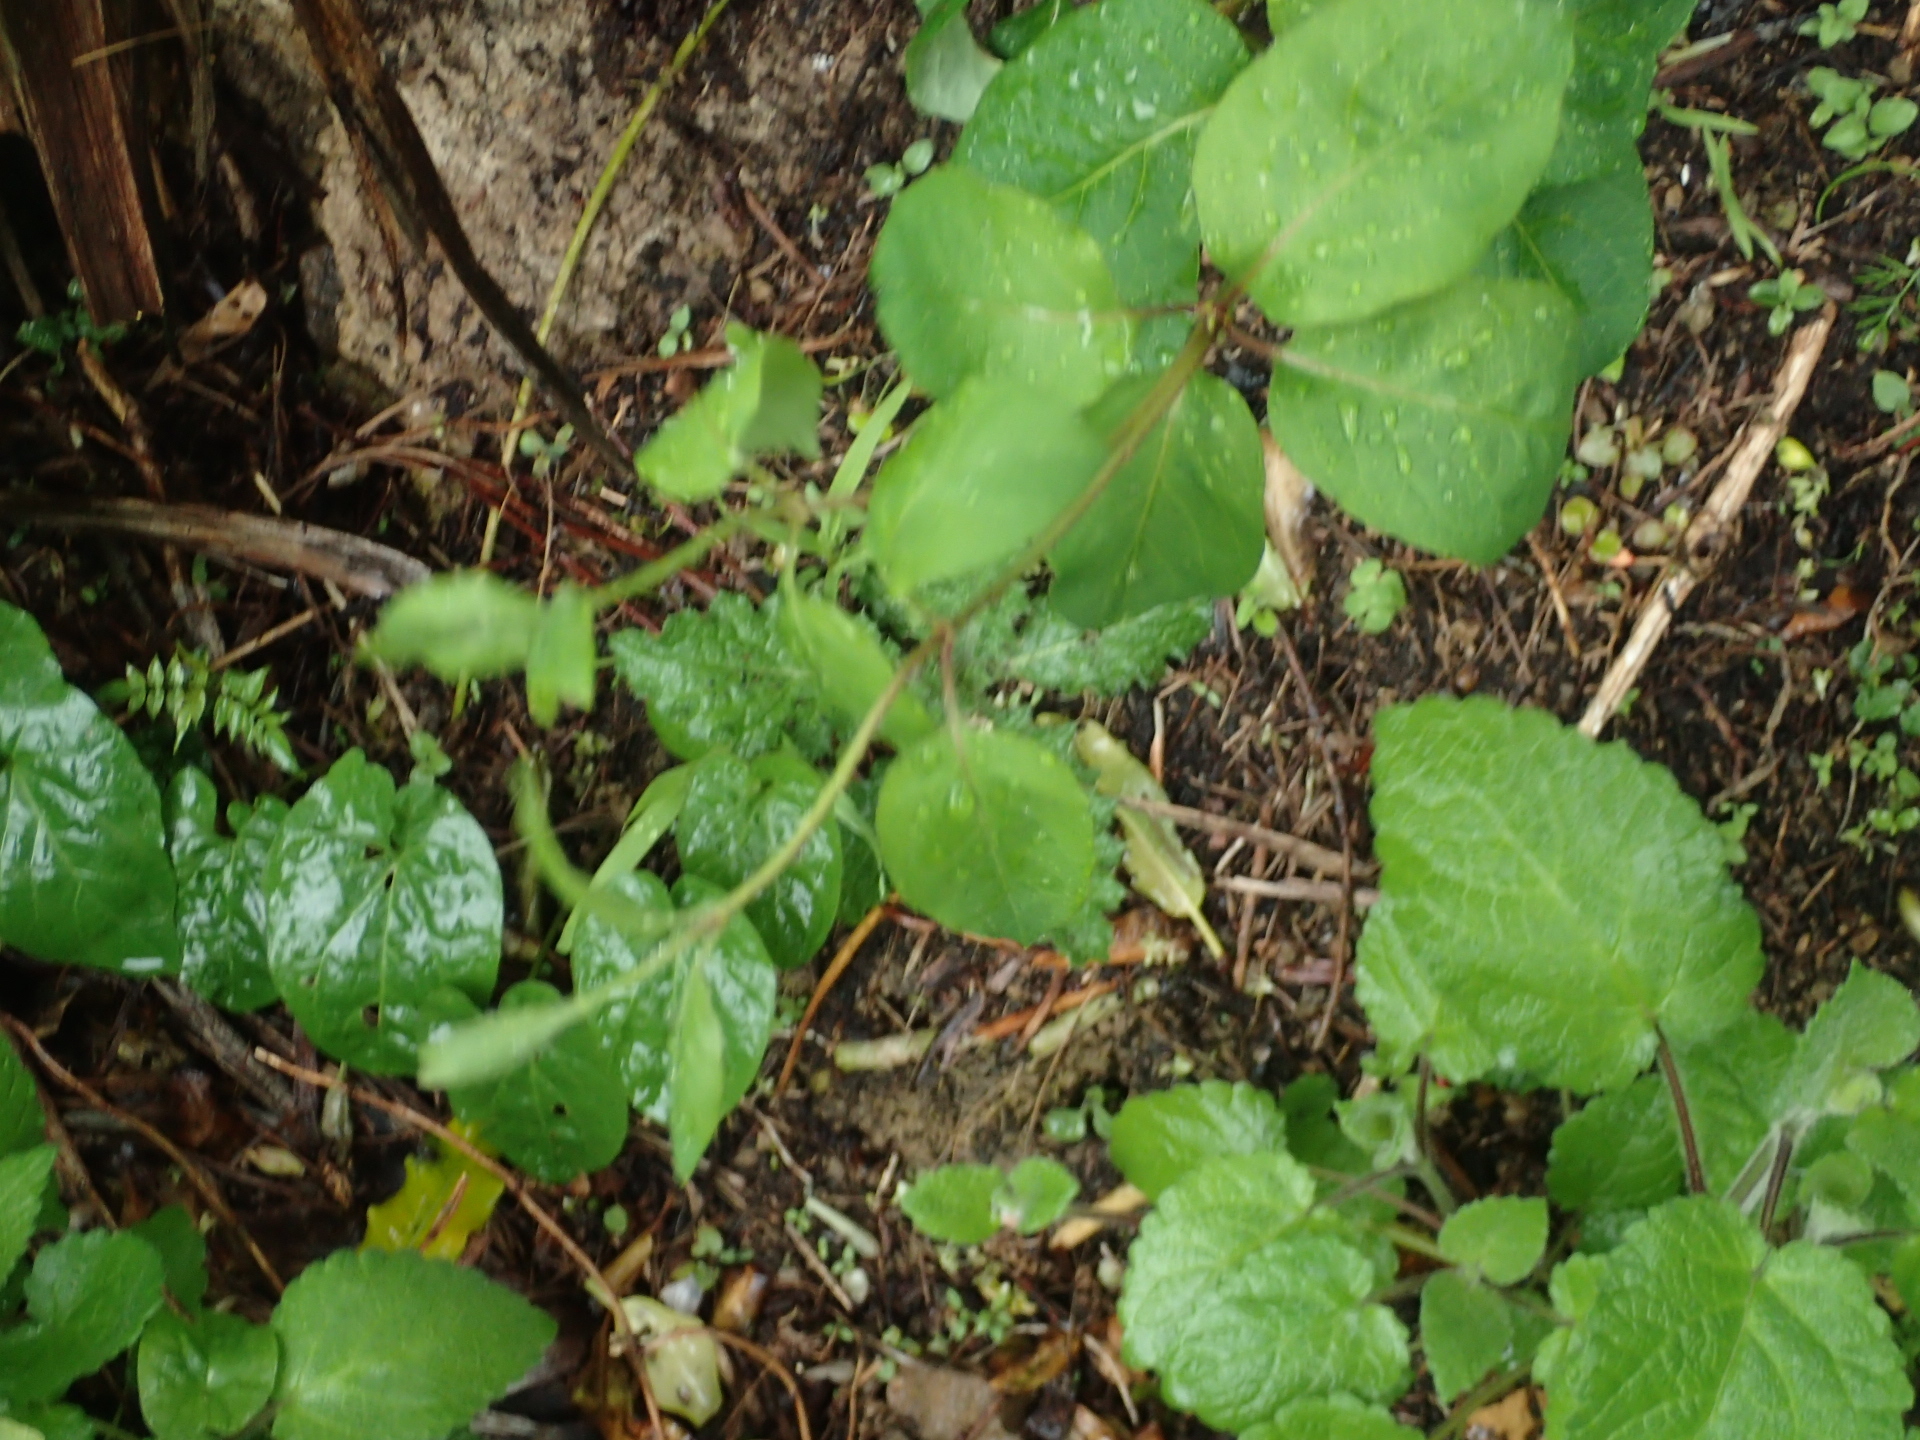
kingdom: Plantae
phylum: Tracheophyta
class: Magnoliopsida
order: Dipsacales
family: Caprifoliaceae
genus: Lonicera
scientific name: Lonicera japonica
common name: Japanese honeysuckle
